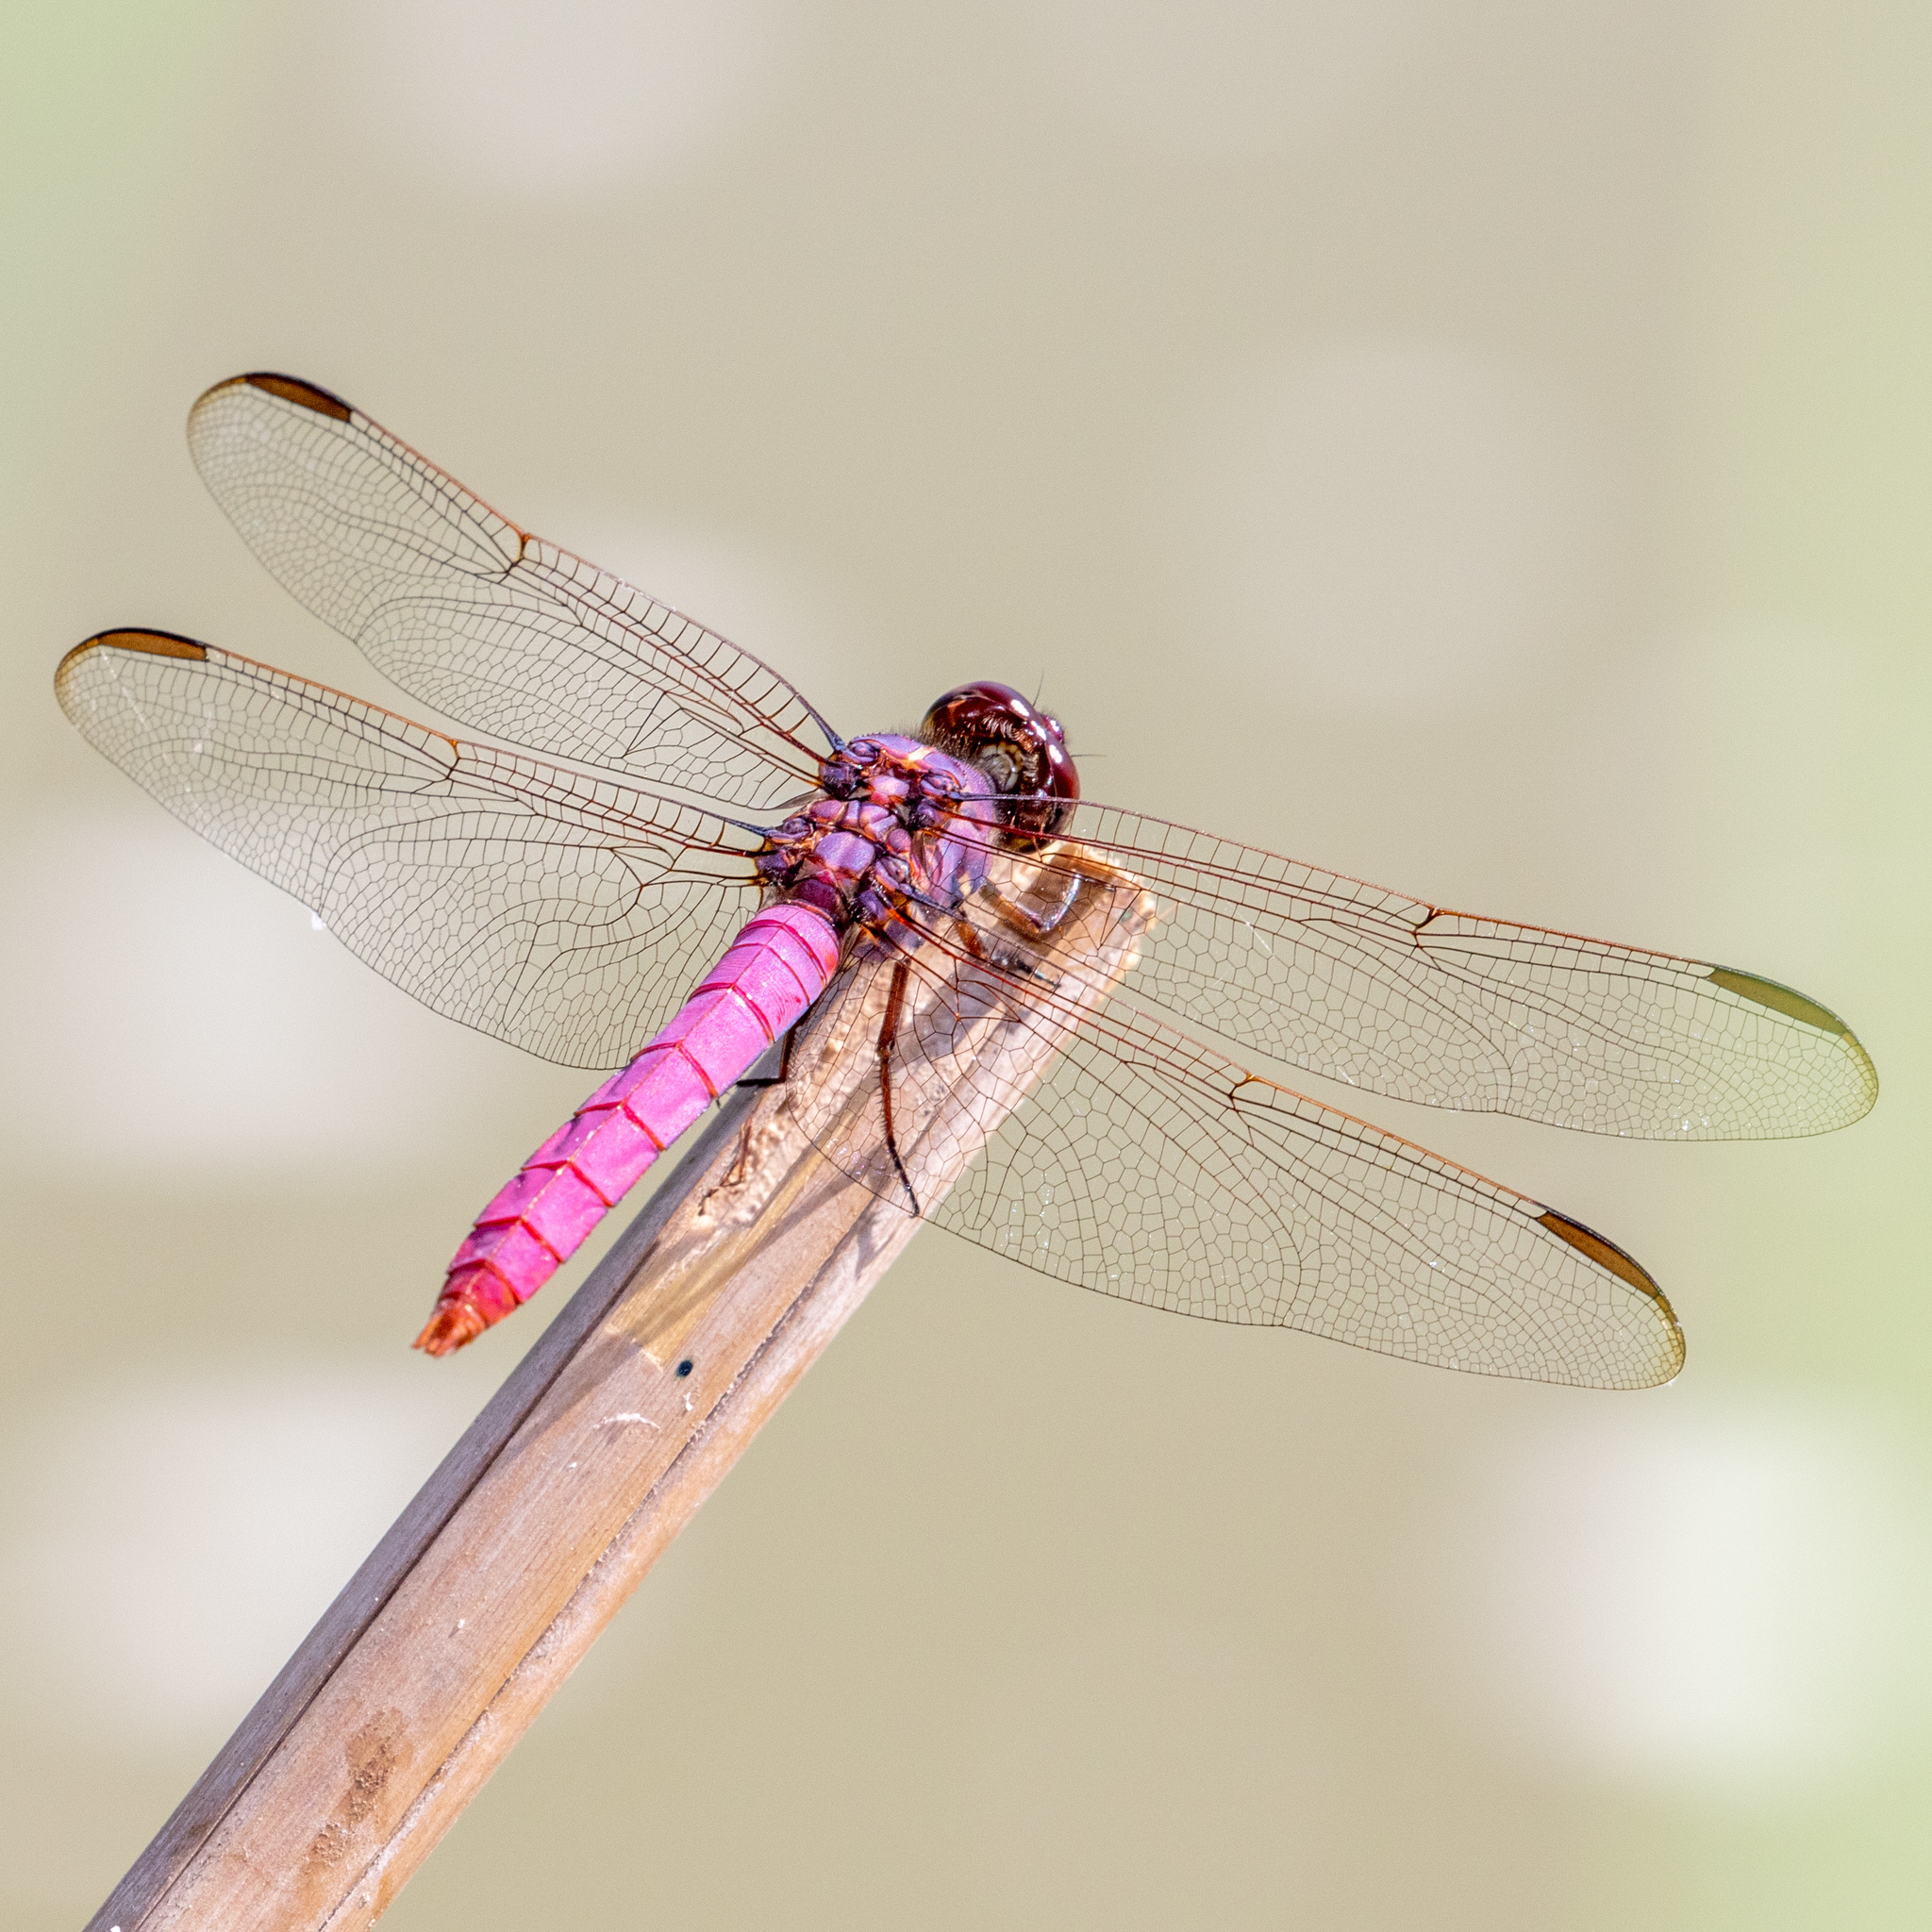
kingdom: Animalia
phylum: Arthropoda
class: Insecta
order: Odonata
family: Libellulidae
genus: Orthemis
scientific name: Orthemis ferruginea
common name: Roseate skimmer
